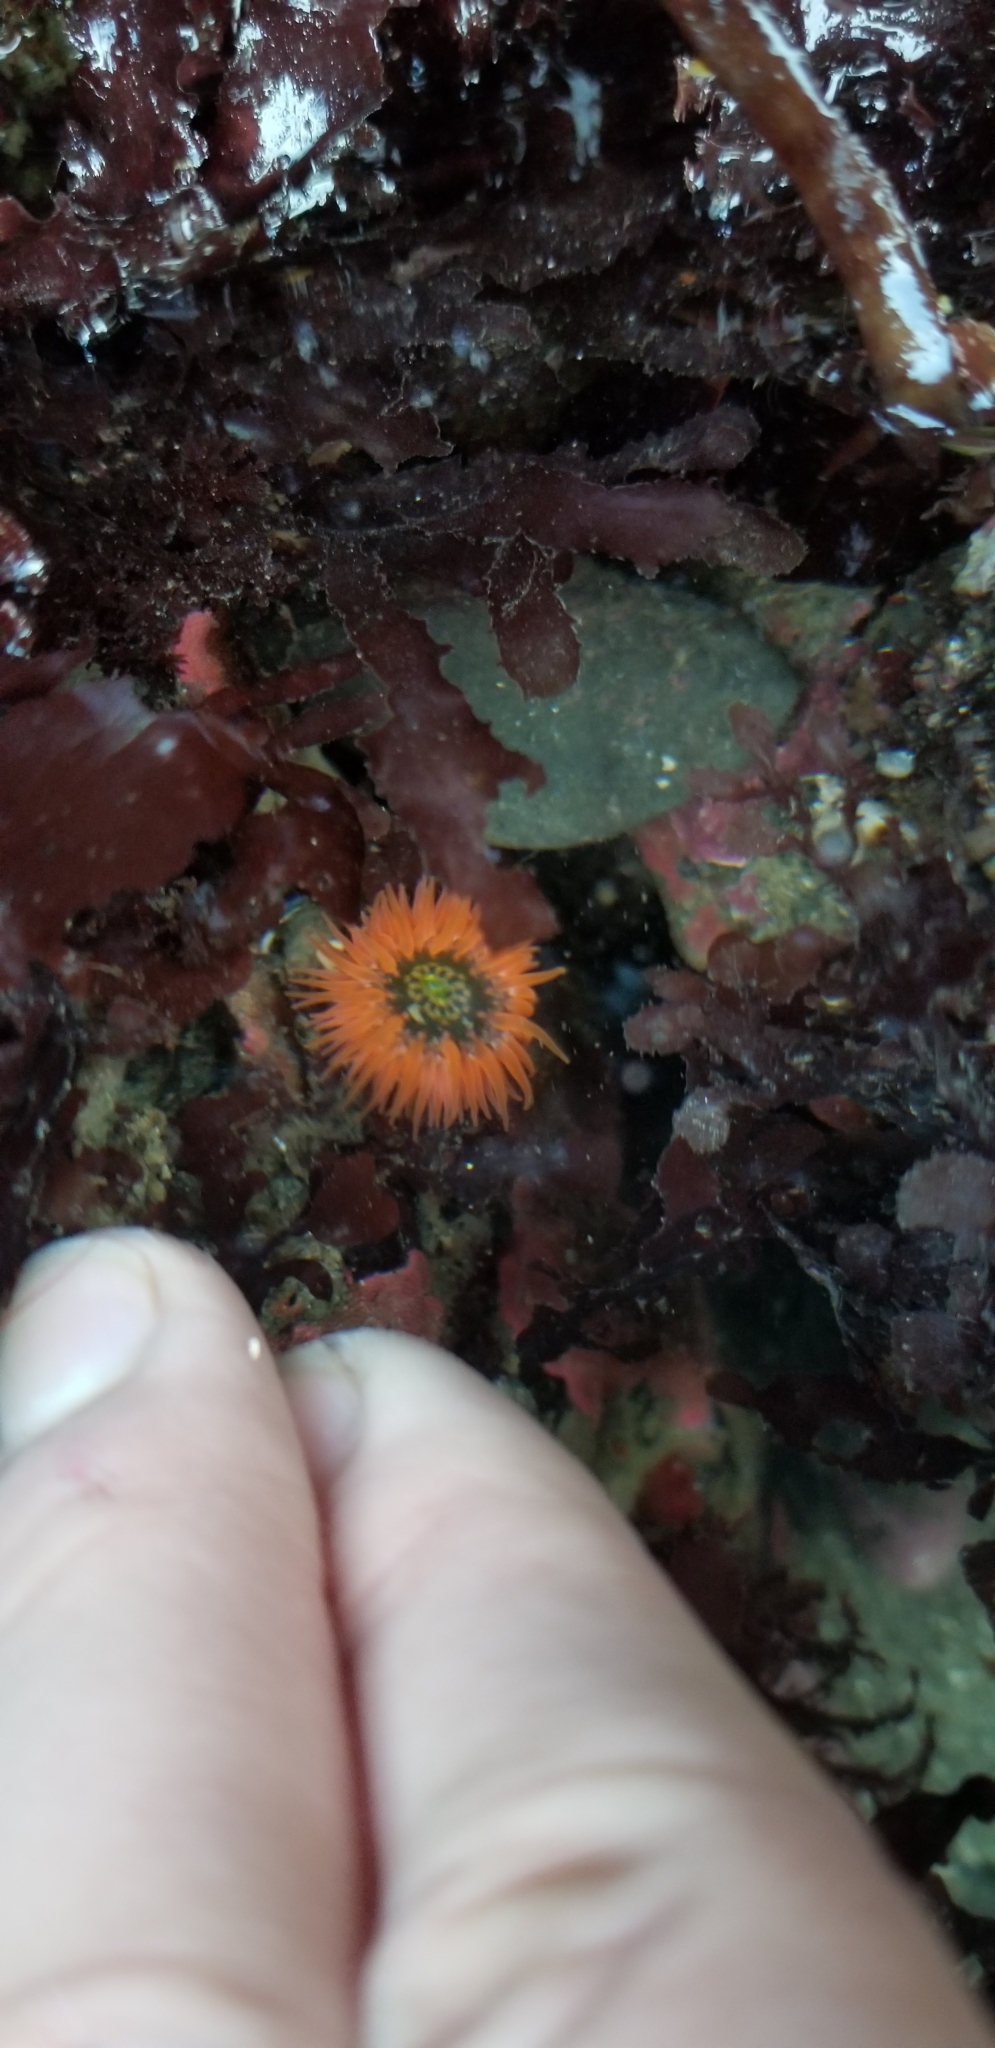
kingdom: Animalia
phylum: Cnidaria
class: Anthozoa
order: Actiniaria
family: Actiniidae
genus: Anthopleura
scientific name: Anthopleura artemisia
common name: Buried sea anemone
